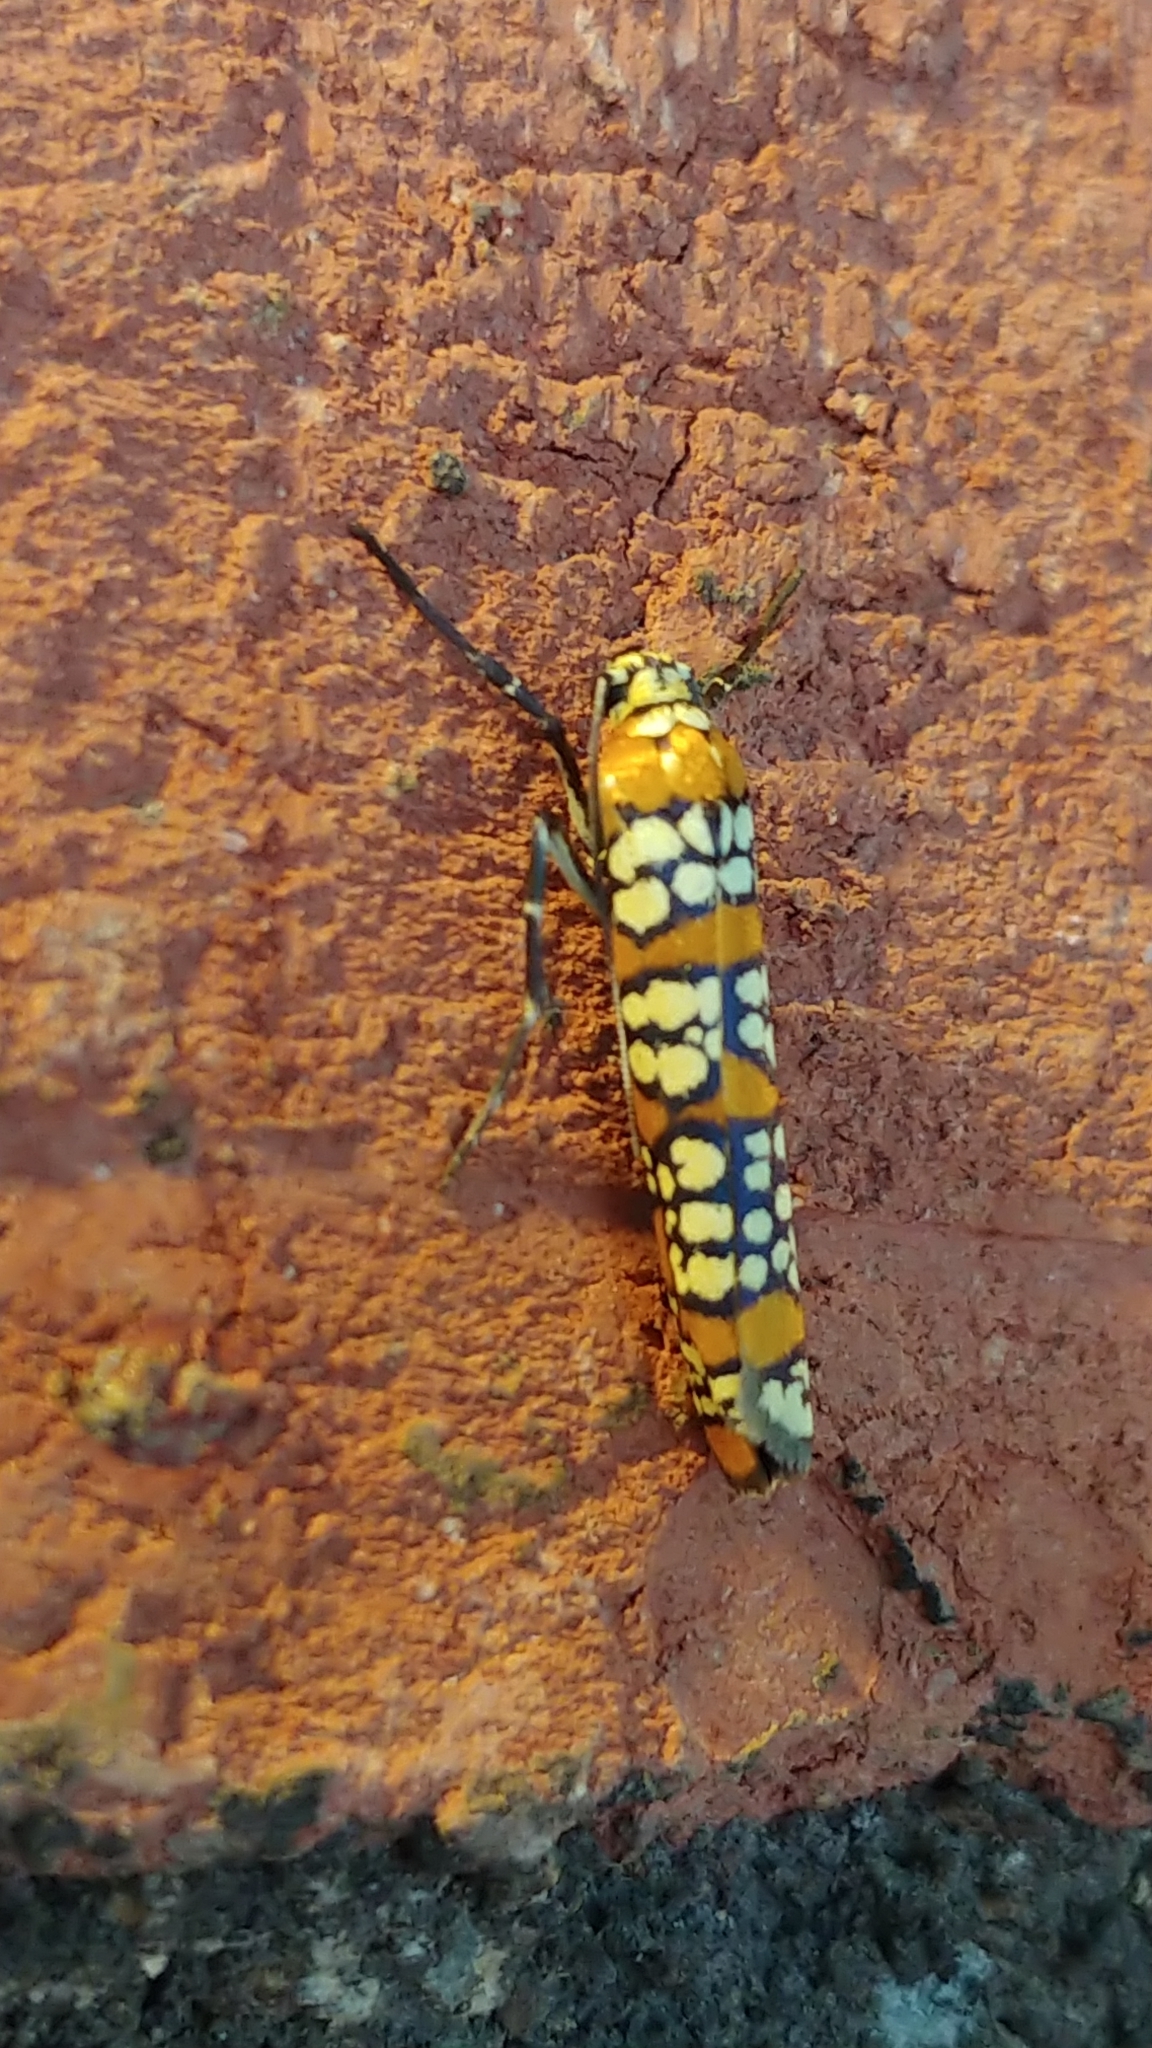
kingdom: Animalia
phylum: Arthropoda
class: Insecta
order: Lepidoptera
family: Attevidae
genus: Atteva
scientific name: Atteva punctella
